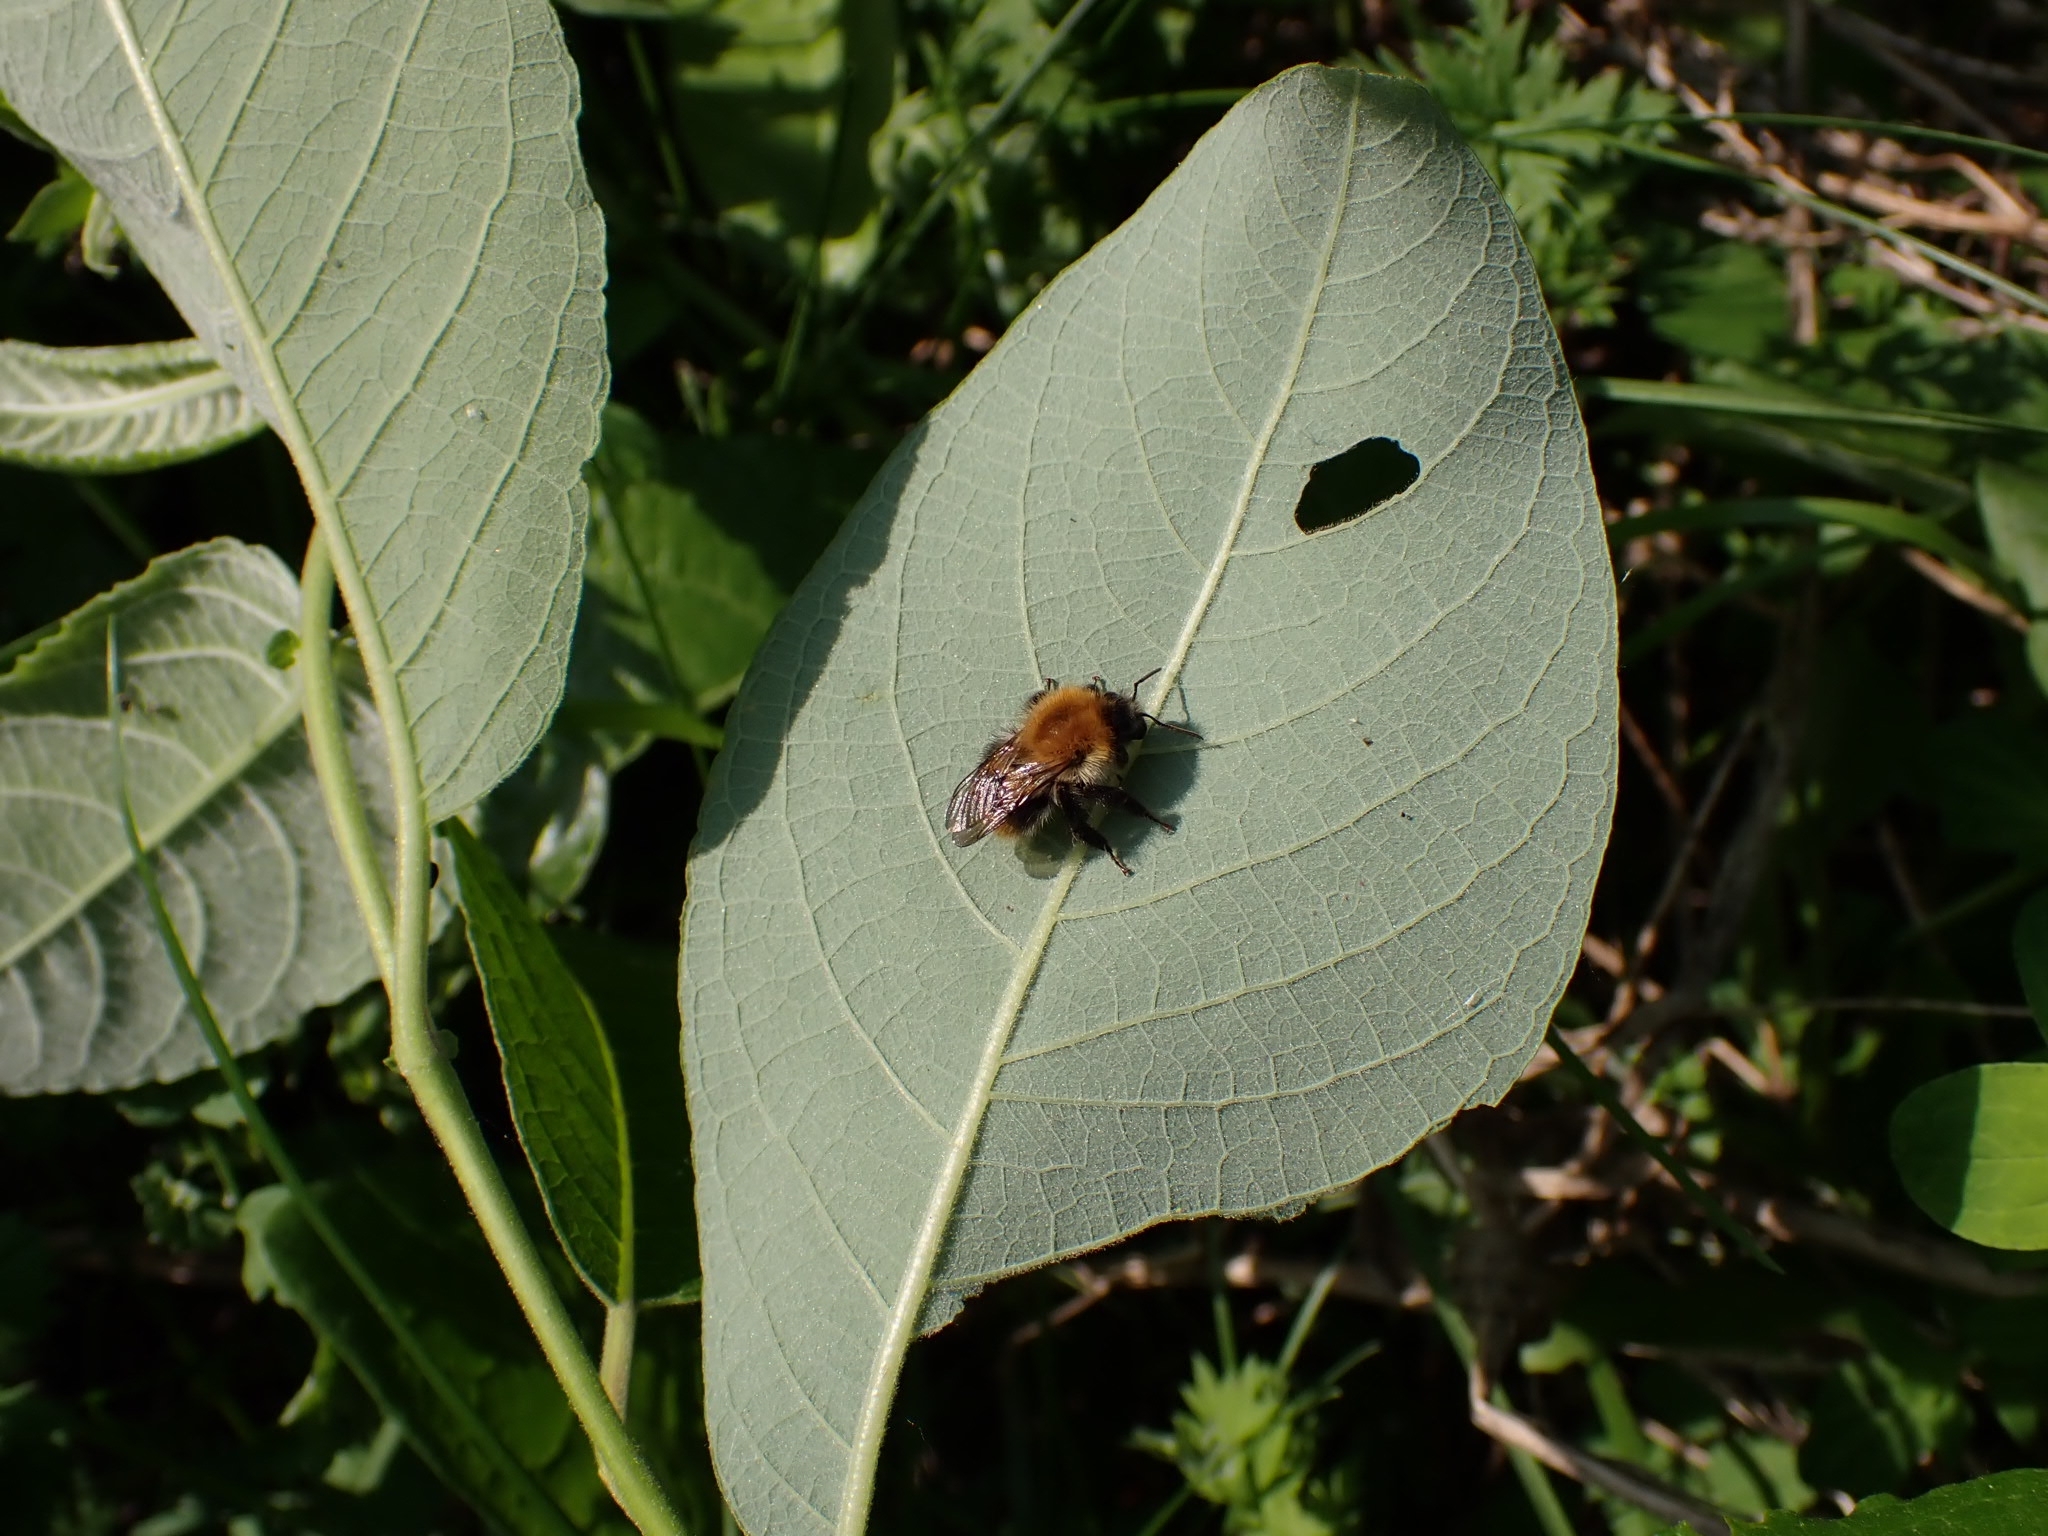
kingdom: Animalia
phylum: Arthropoda
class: Insecta
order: Hymenoptera
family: Apidae
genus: Bombus
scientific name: Bombus pascuorum
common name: Common carder bee
